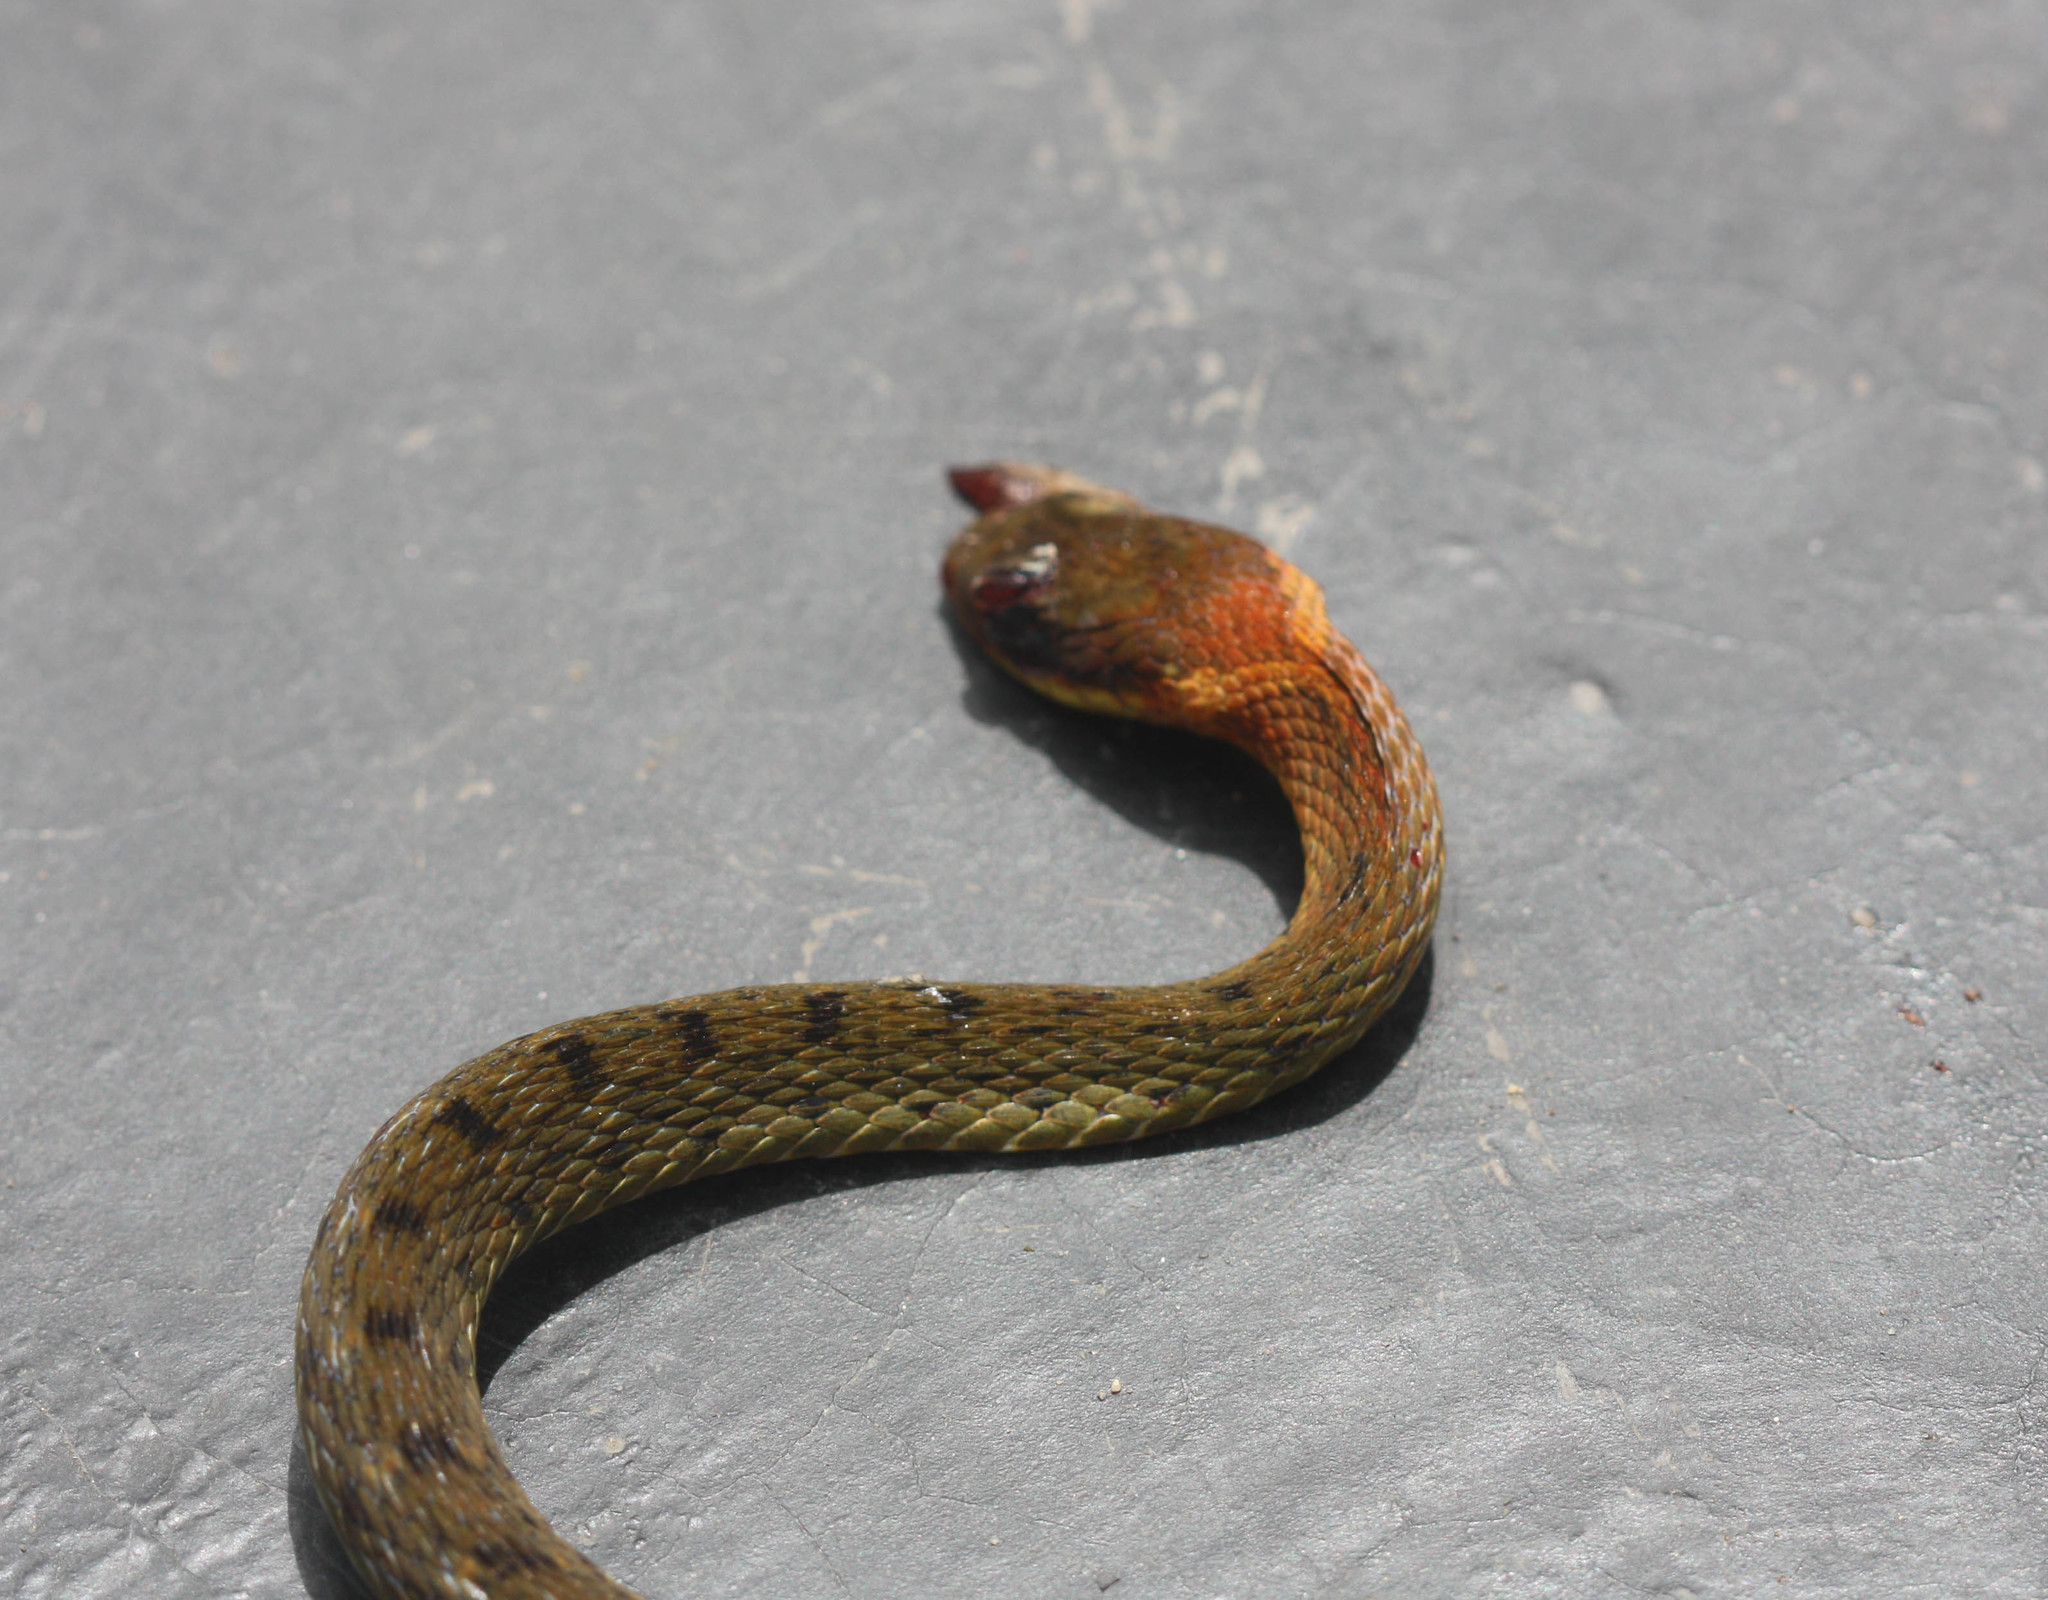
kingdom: Animalia
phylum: Chordata
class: Squamata
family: Colubridae
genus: Rhabdophis
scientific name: Rhabdophis chrysargos
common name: Specklebelly keelback
